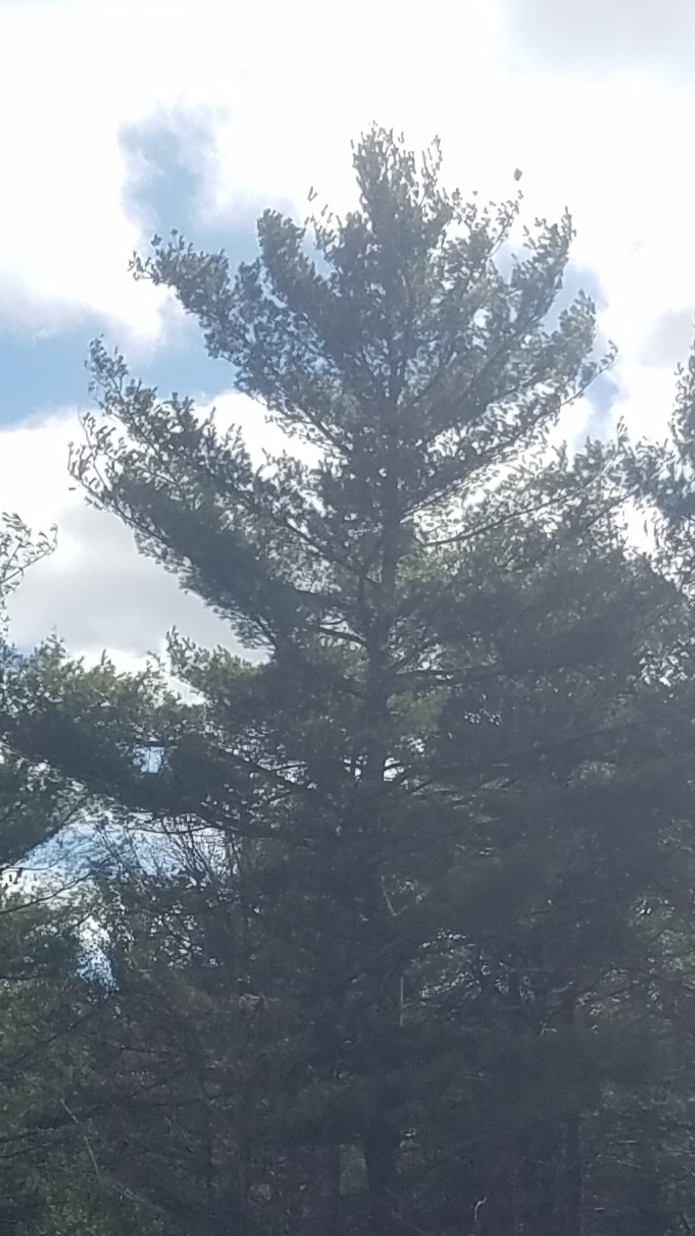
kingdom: Plantae
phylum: Tracheophyta
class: Pinopsida
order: Pinales
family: Pinaceae
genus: Pinus
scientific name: Pinus strobus
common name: Weymouth pine
